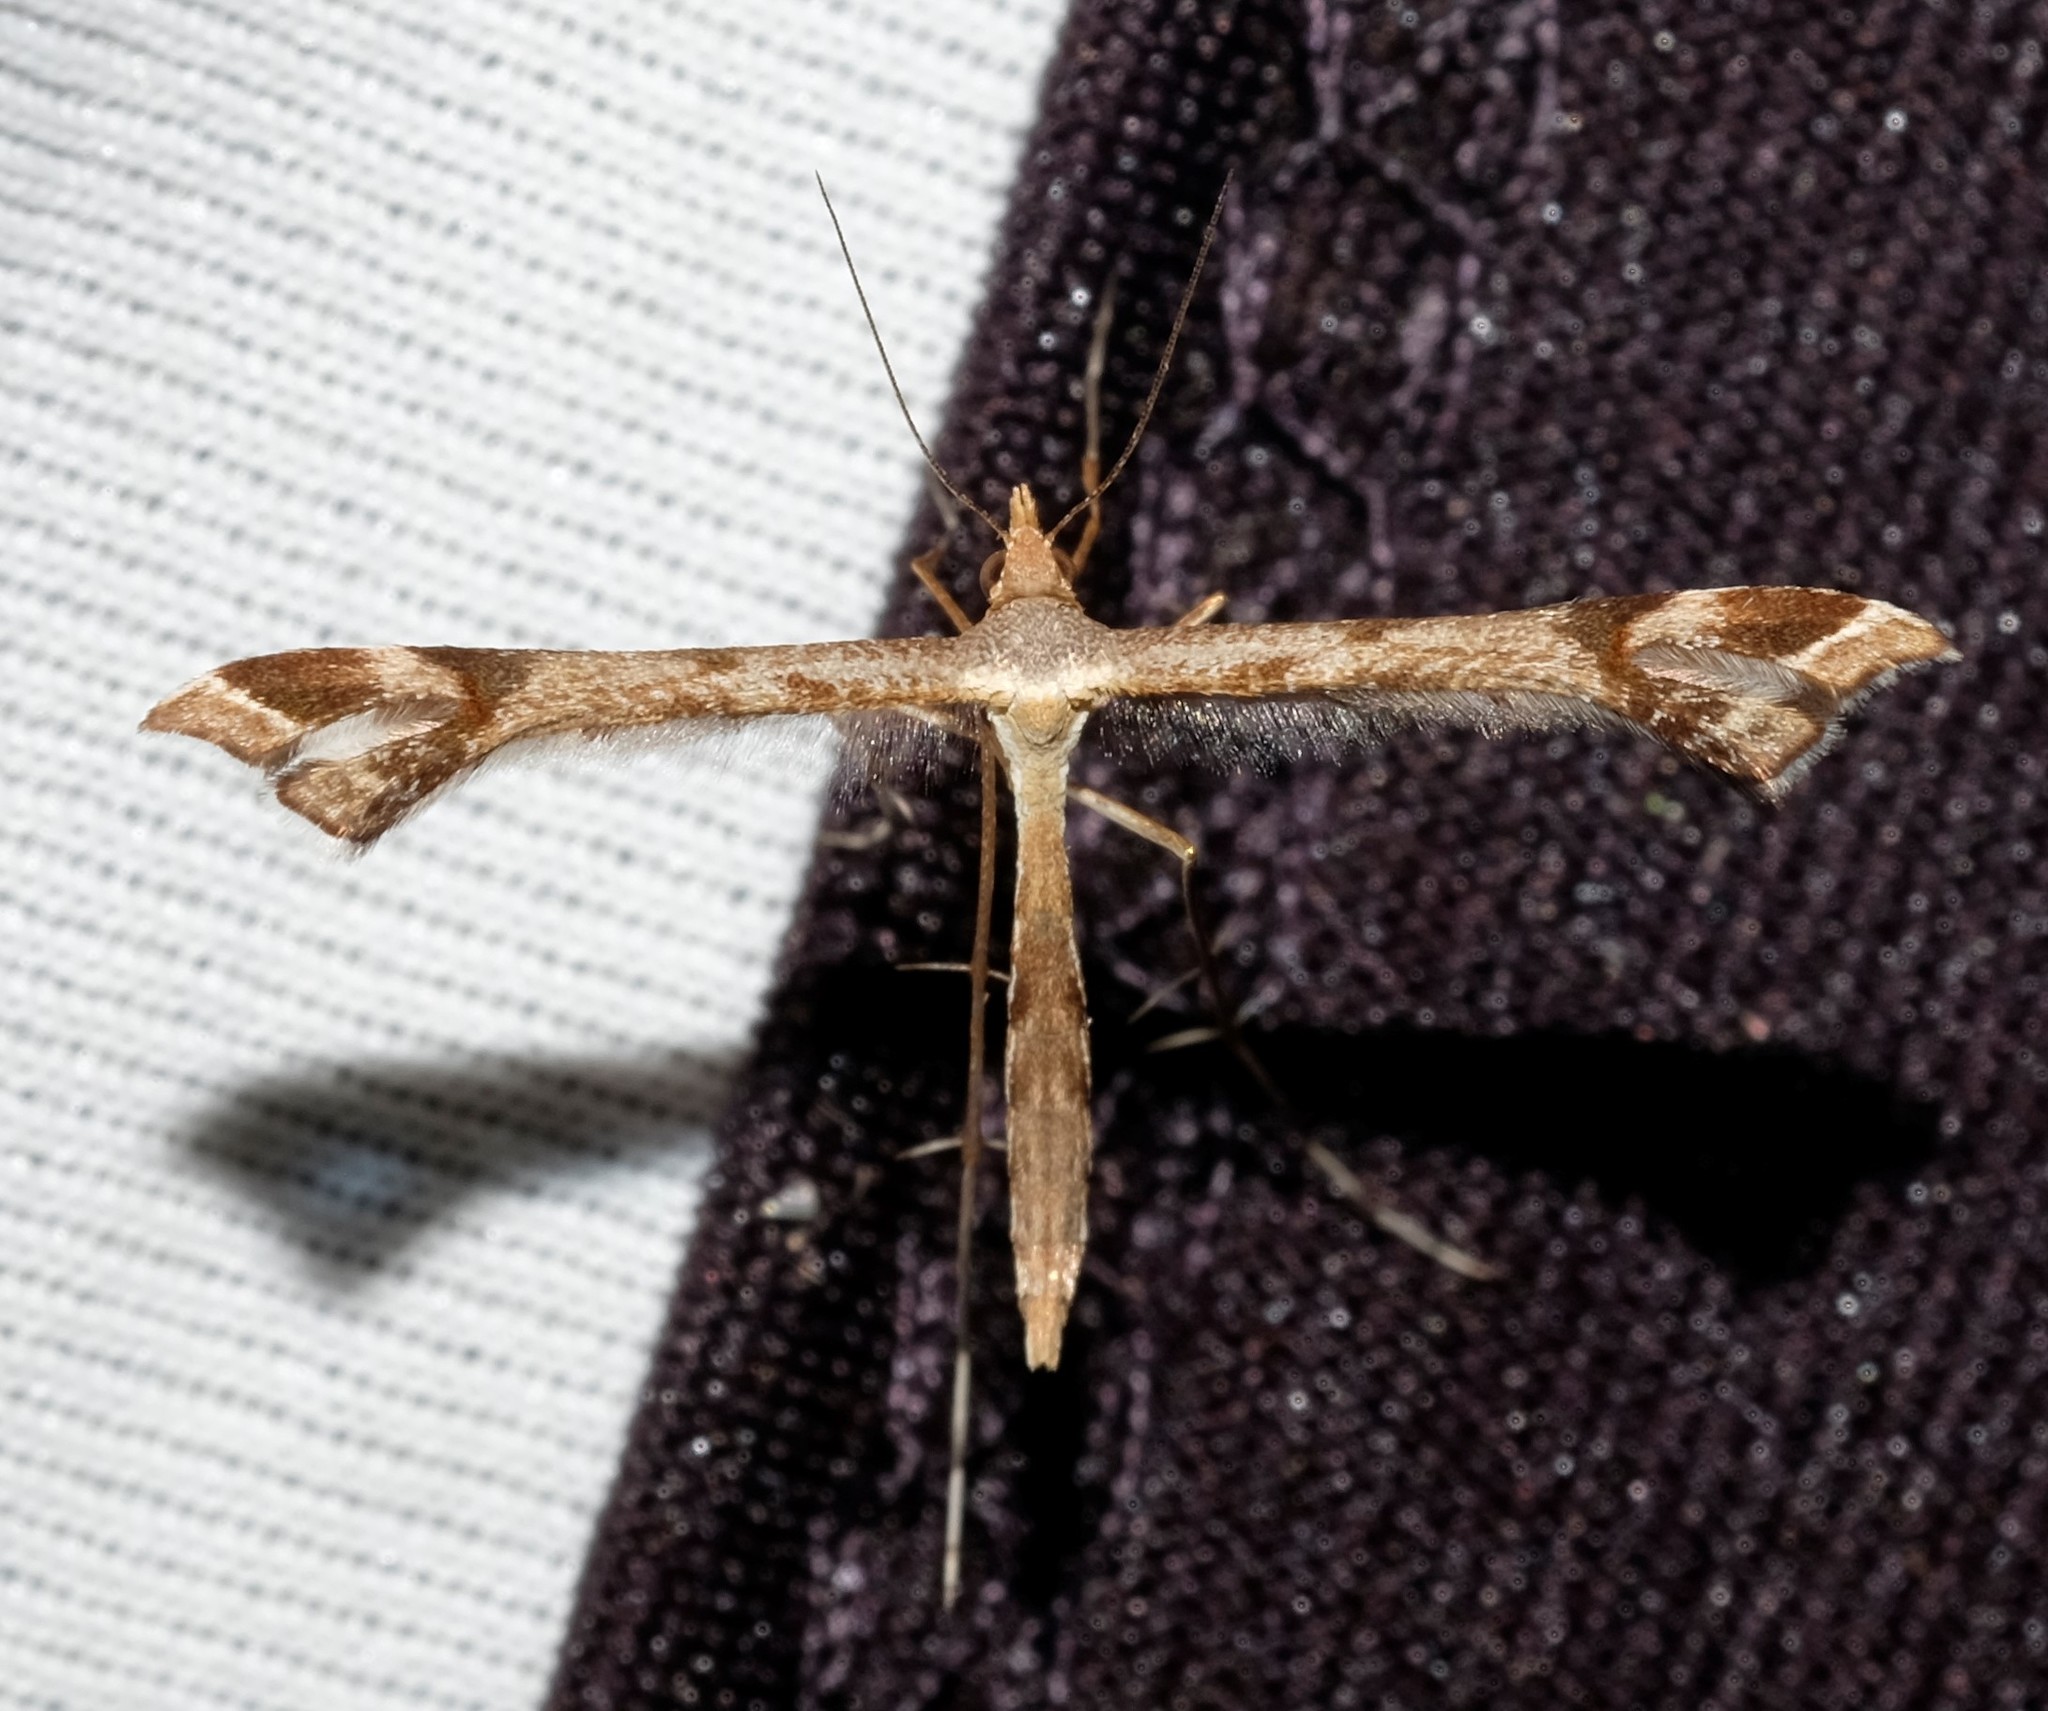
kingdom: Animalia
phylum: Arthropoda
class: Insecta
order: Lepidoptera
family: Pterophoridae
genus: Sinpunctiptilia
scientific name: Sinpunctiptilia emissalis
